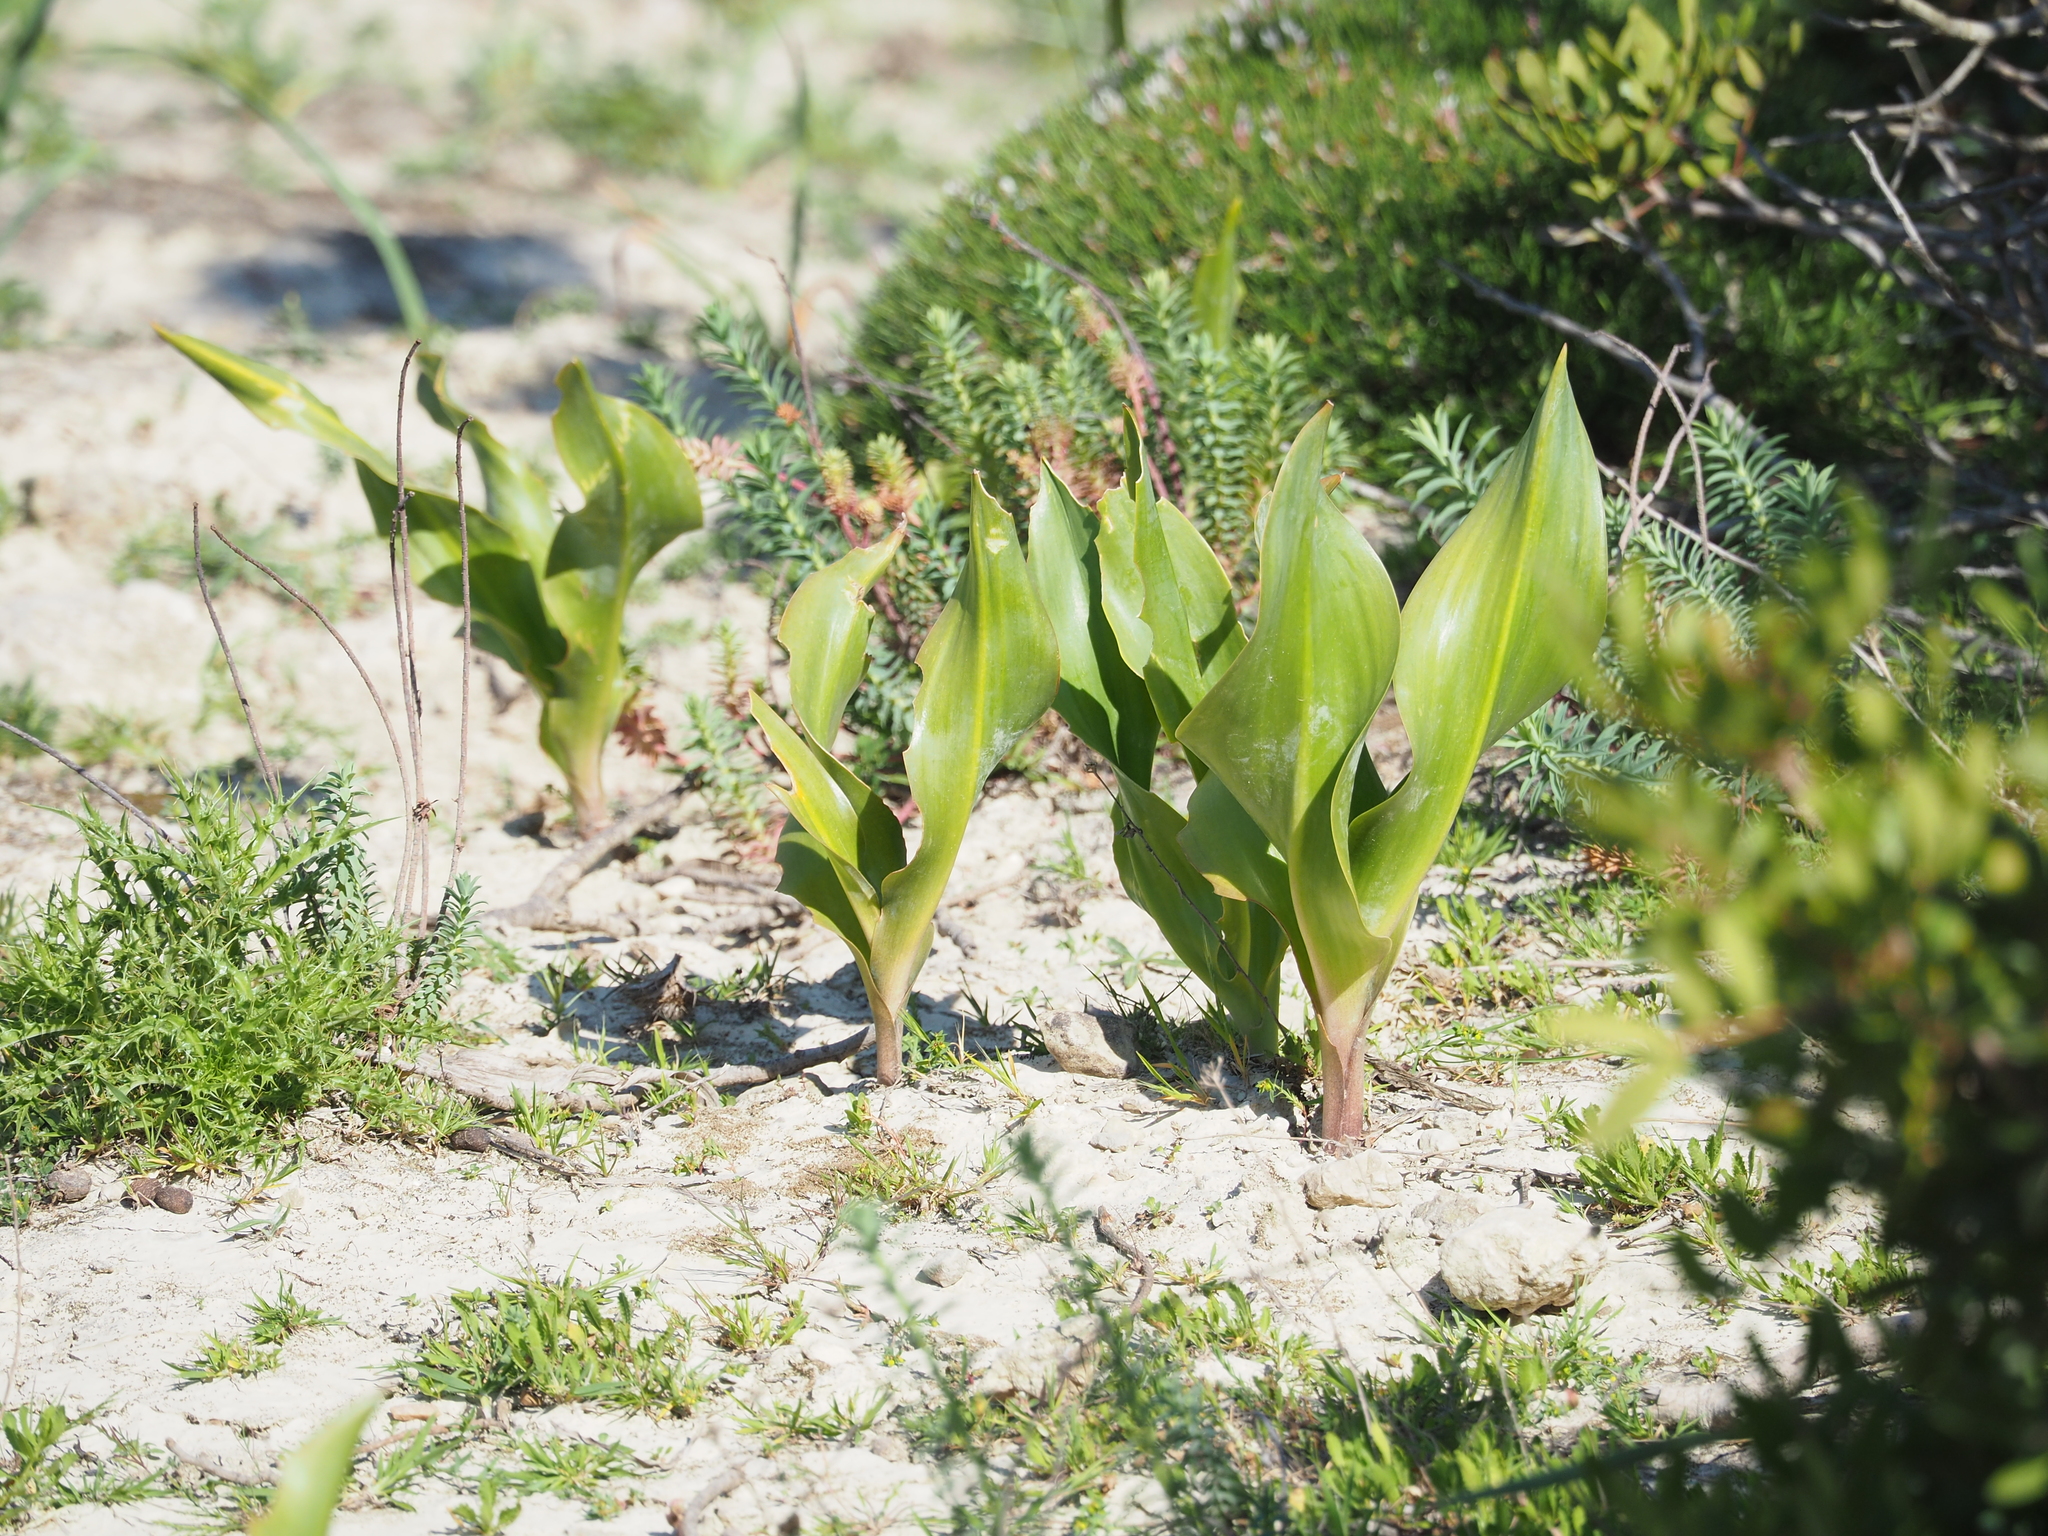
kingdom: Plantae
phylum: Tracheophyta
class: Liliopsida
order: Asparagales
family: Asparagaceae
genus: Drimia
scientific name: Drimia maritima
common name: Maritime squill
